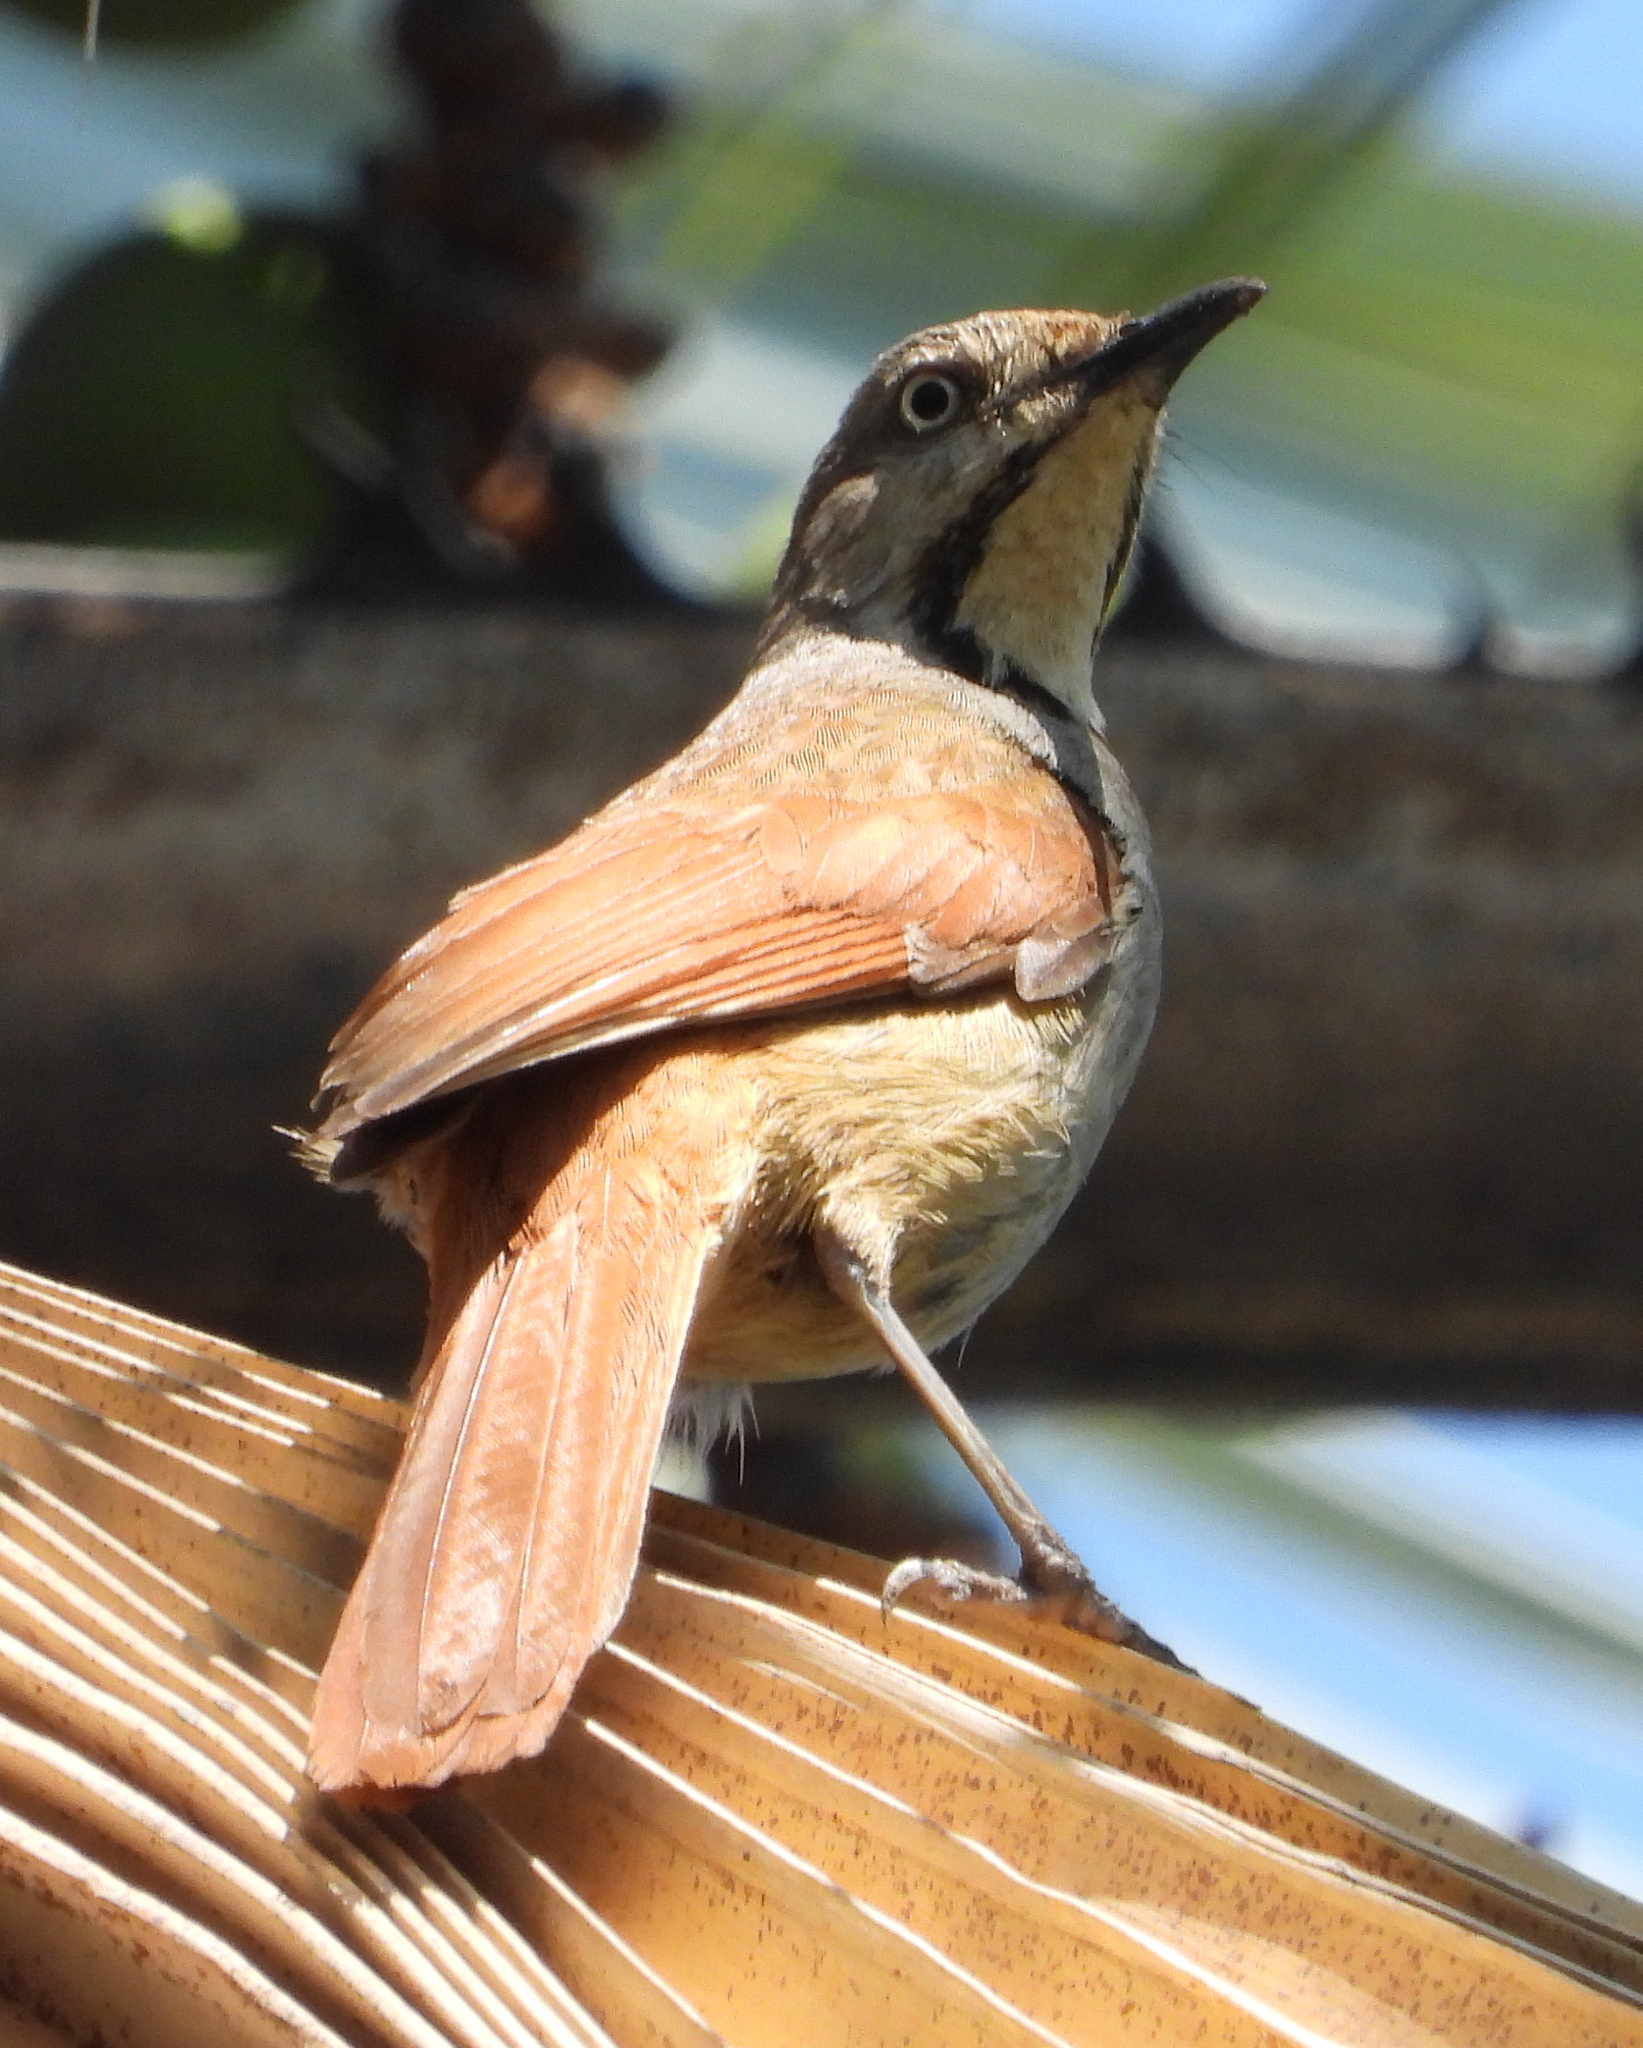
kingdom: Animalia
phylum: Chordata
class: Aves
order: Passeriformes
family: Muscicapidae
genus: Cichladusa
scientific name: Cichladusa arquata
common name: Collared palm thrush
